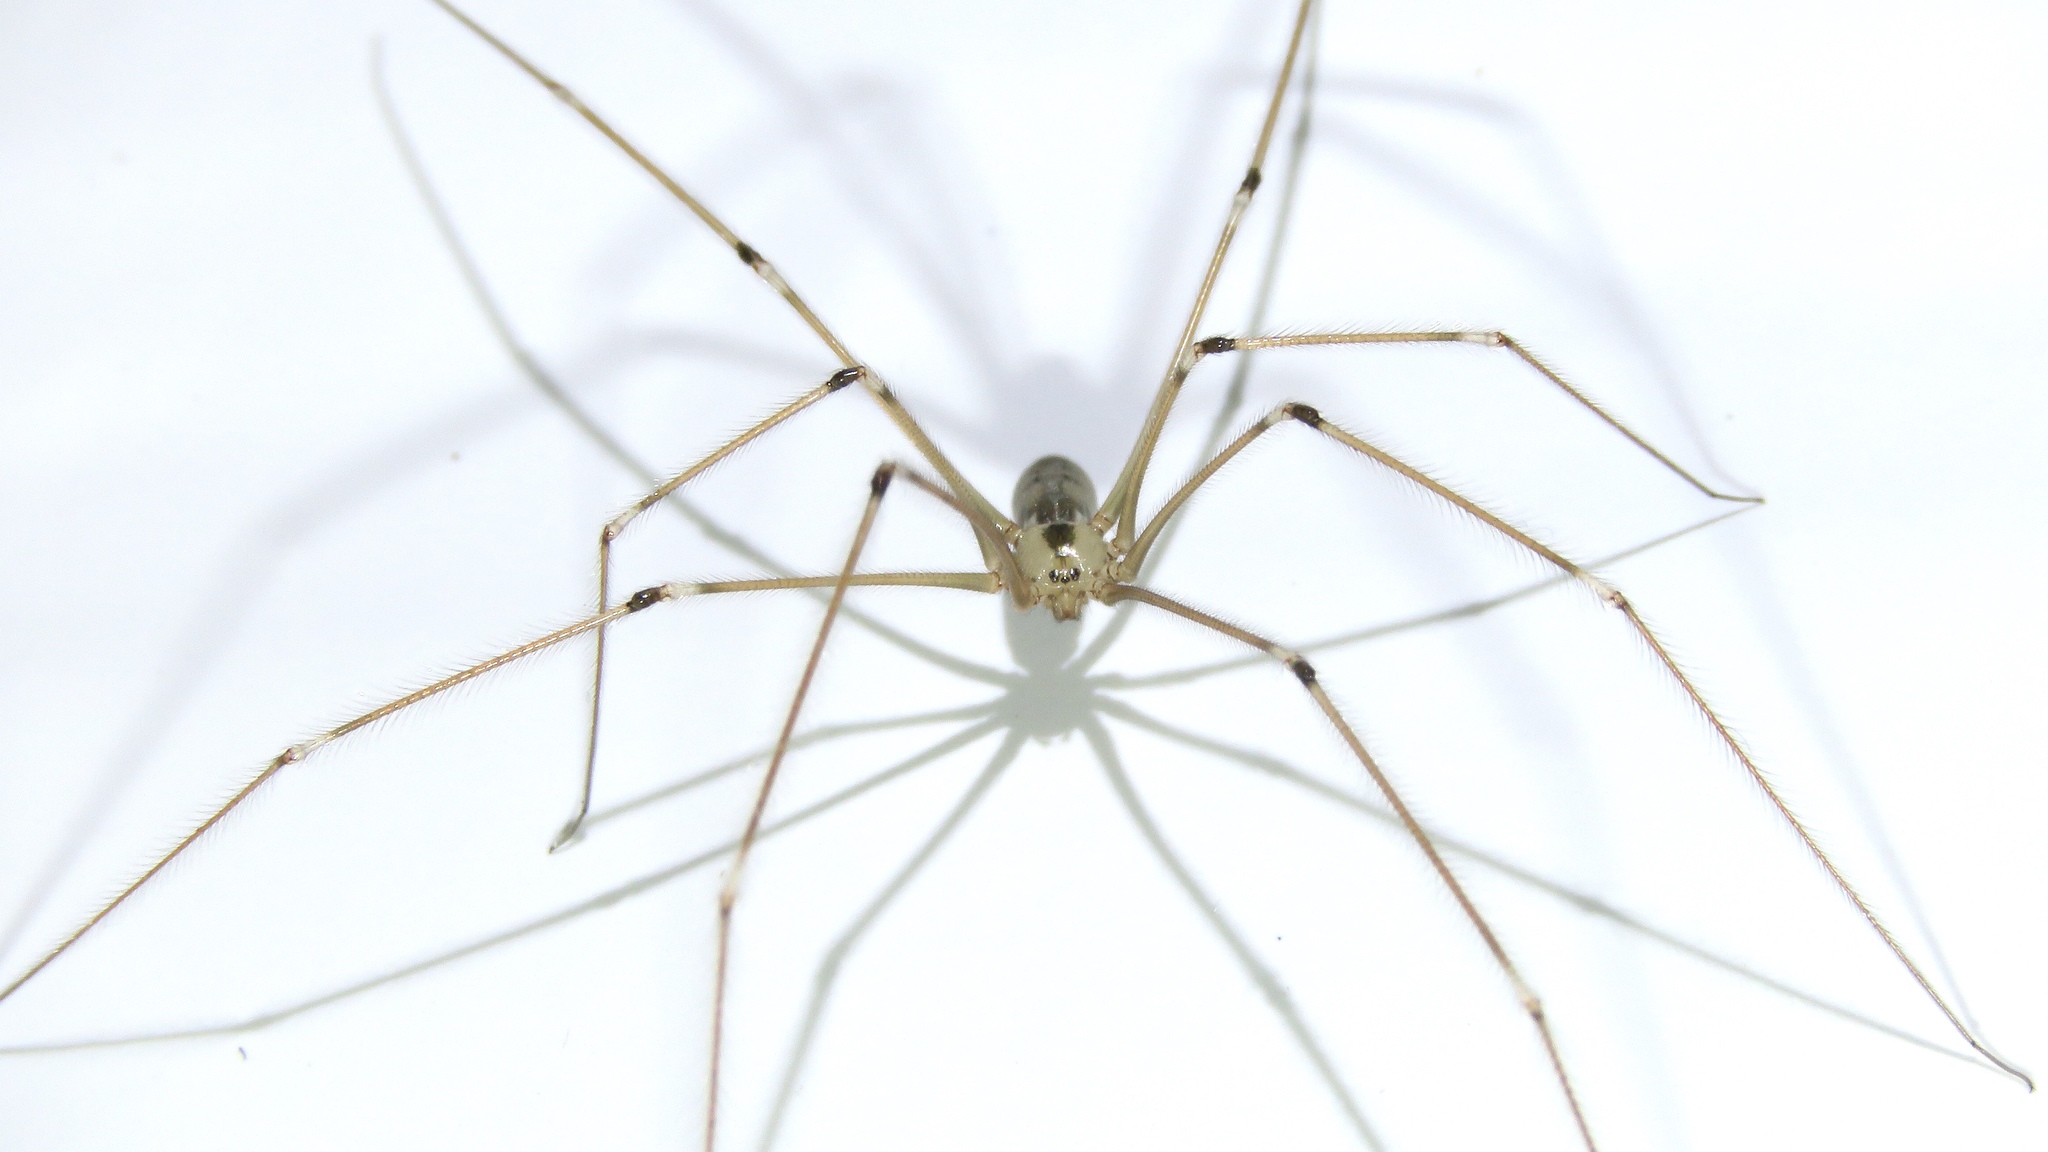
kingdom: Animalia
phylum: Arthropoda
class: Arachnida
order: Araneae
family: Pholcidae
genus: Pholcus
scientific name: Pholcus phalangioides
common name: Longbodied cellar spider
